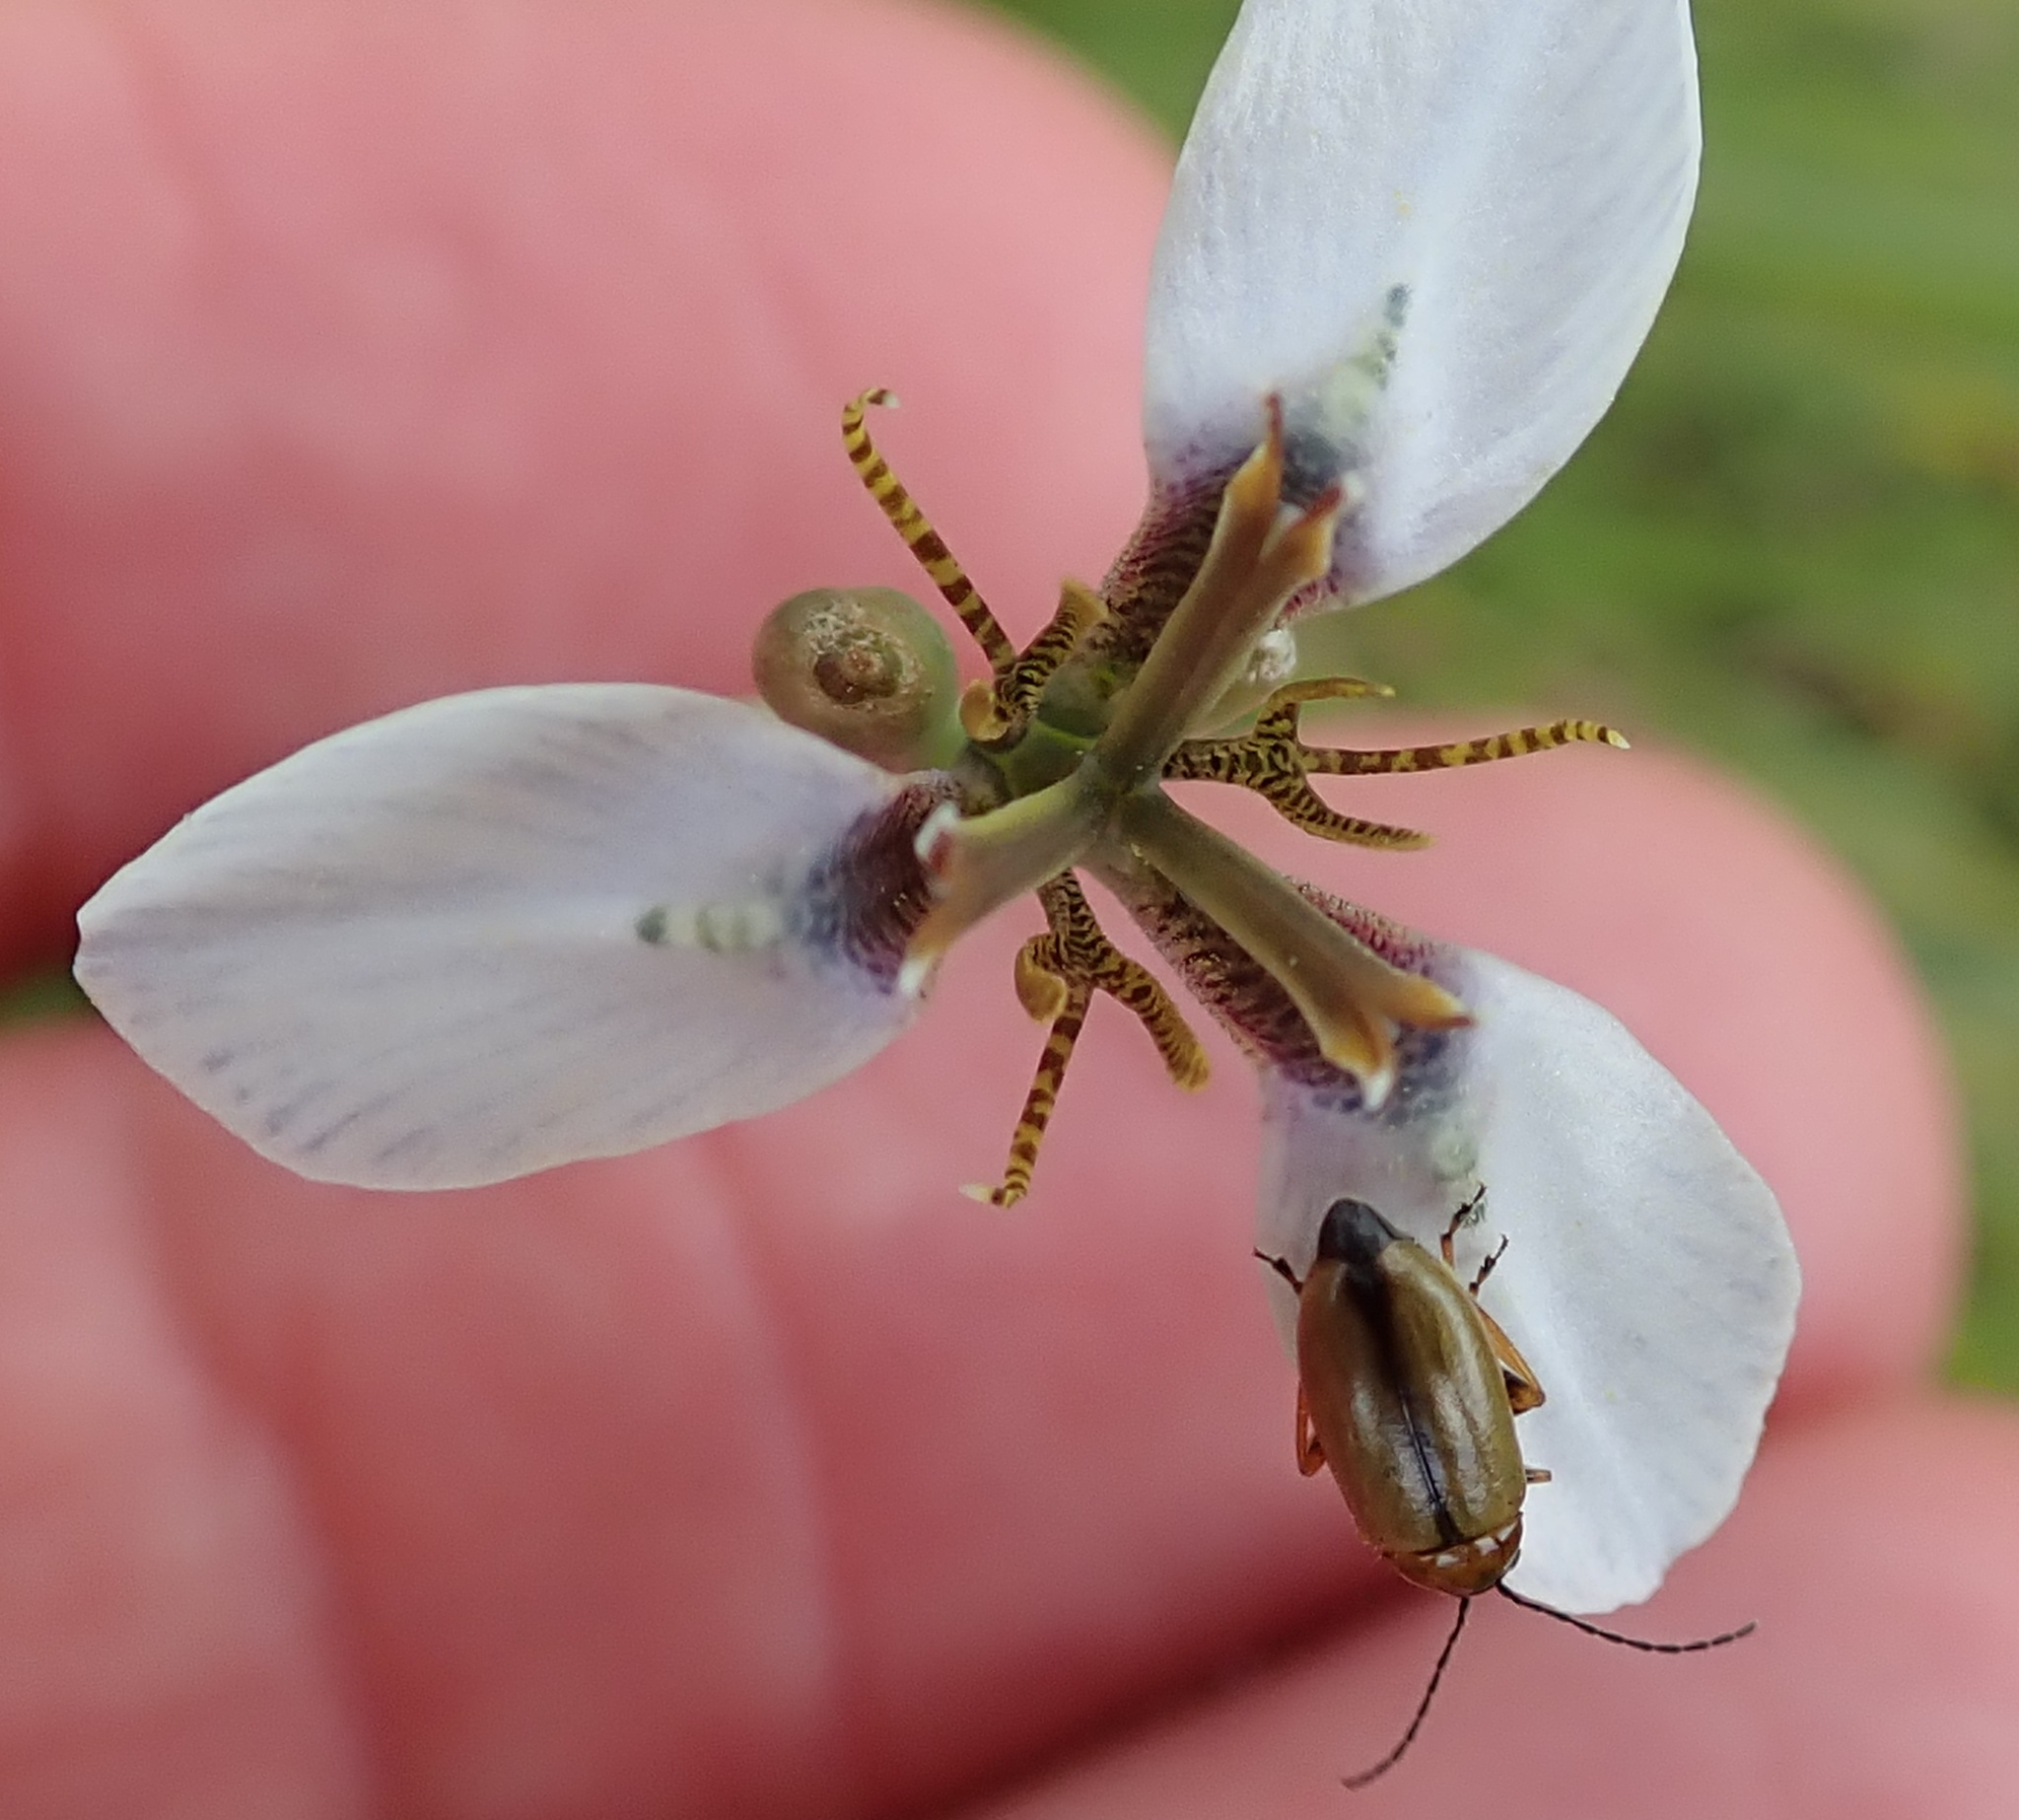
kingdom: Plantae
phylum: Tracheophyta
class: Liliopsida
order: Asparagales
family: Iridaceae
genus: Moraea
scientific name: Moraea brevistyla
